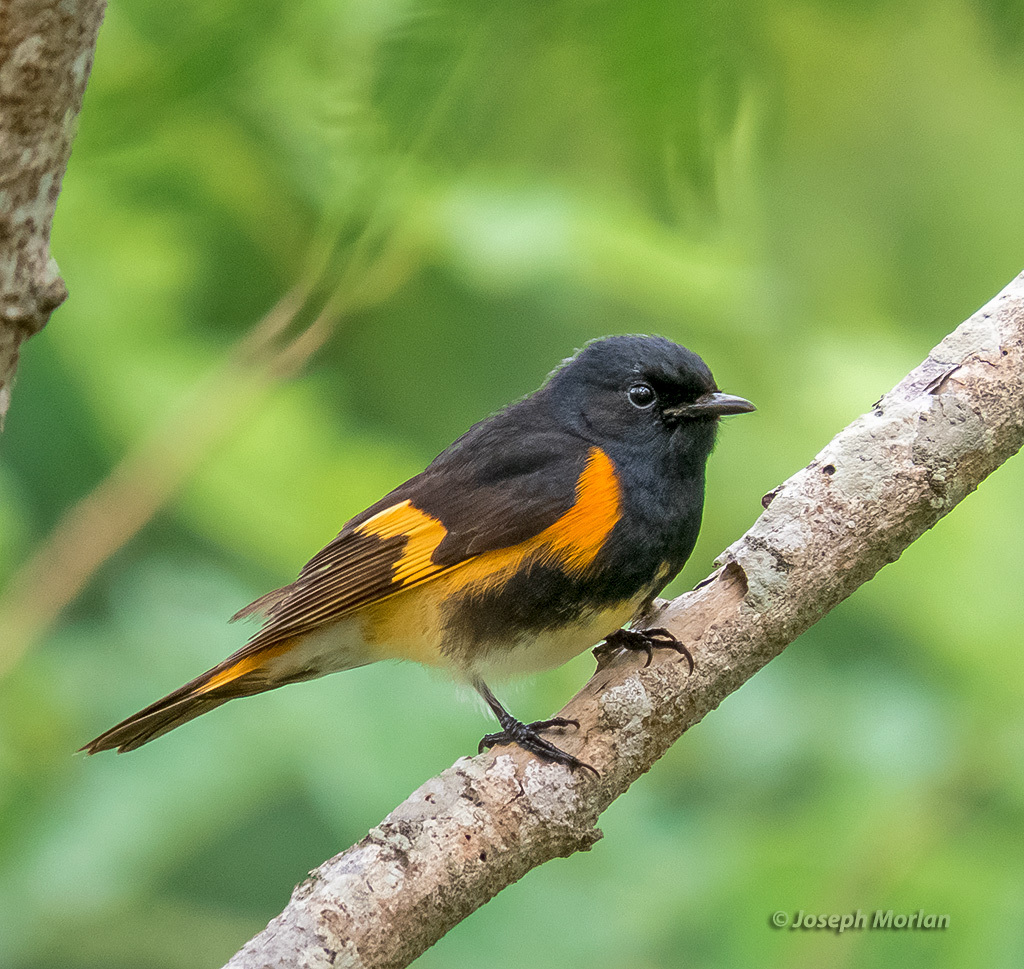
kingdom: Animalia
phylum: Chordata
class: Aves
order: Passeriformes
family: Parulidae
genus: Setophaga
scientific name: Setophaga ruticilla
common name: American redstart
